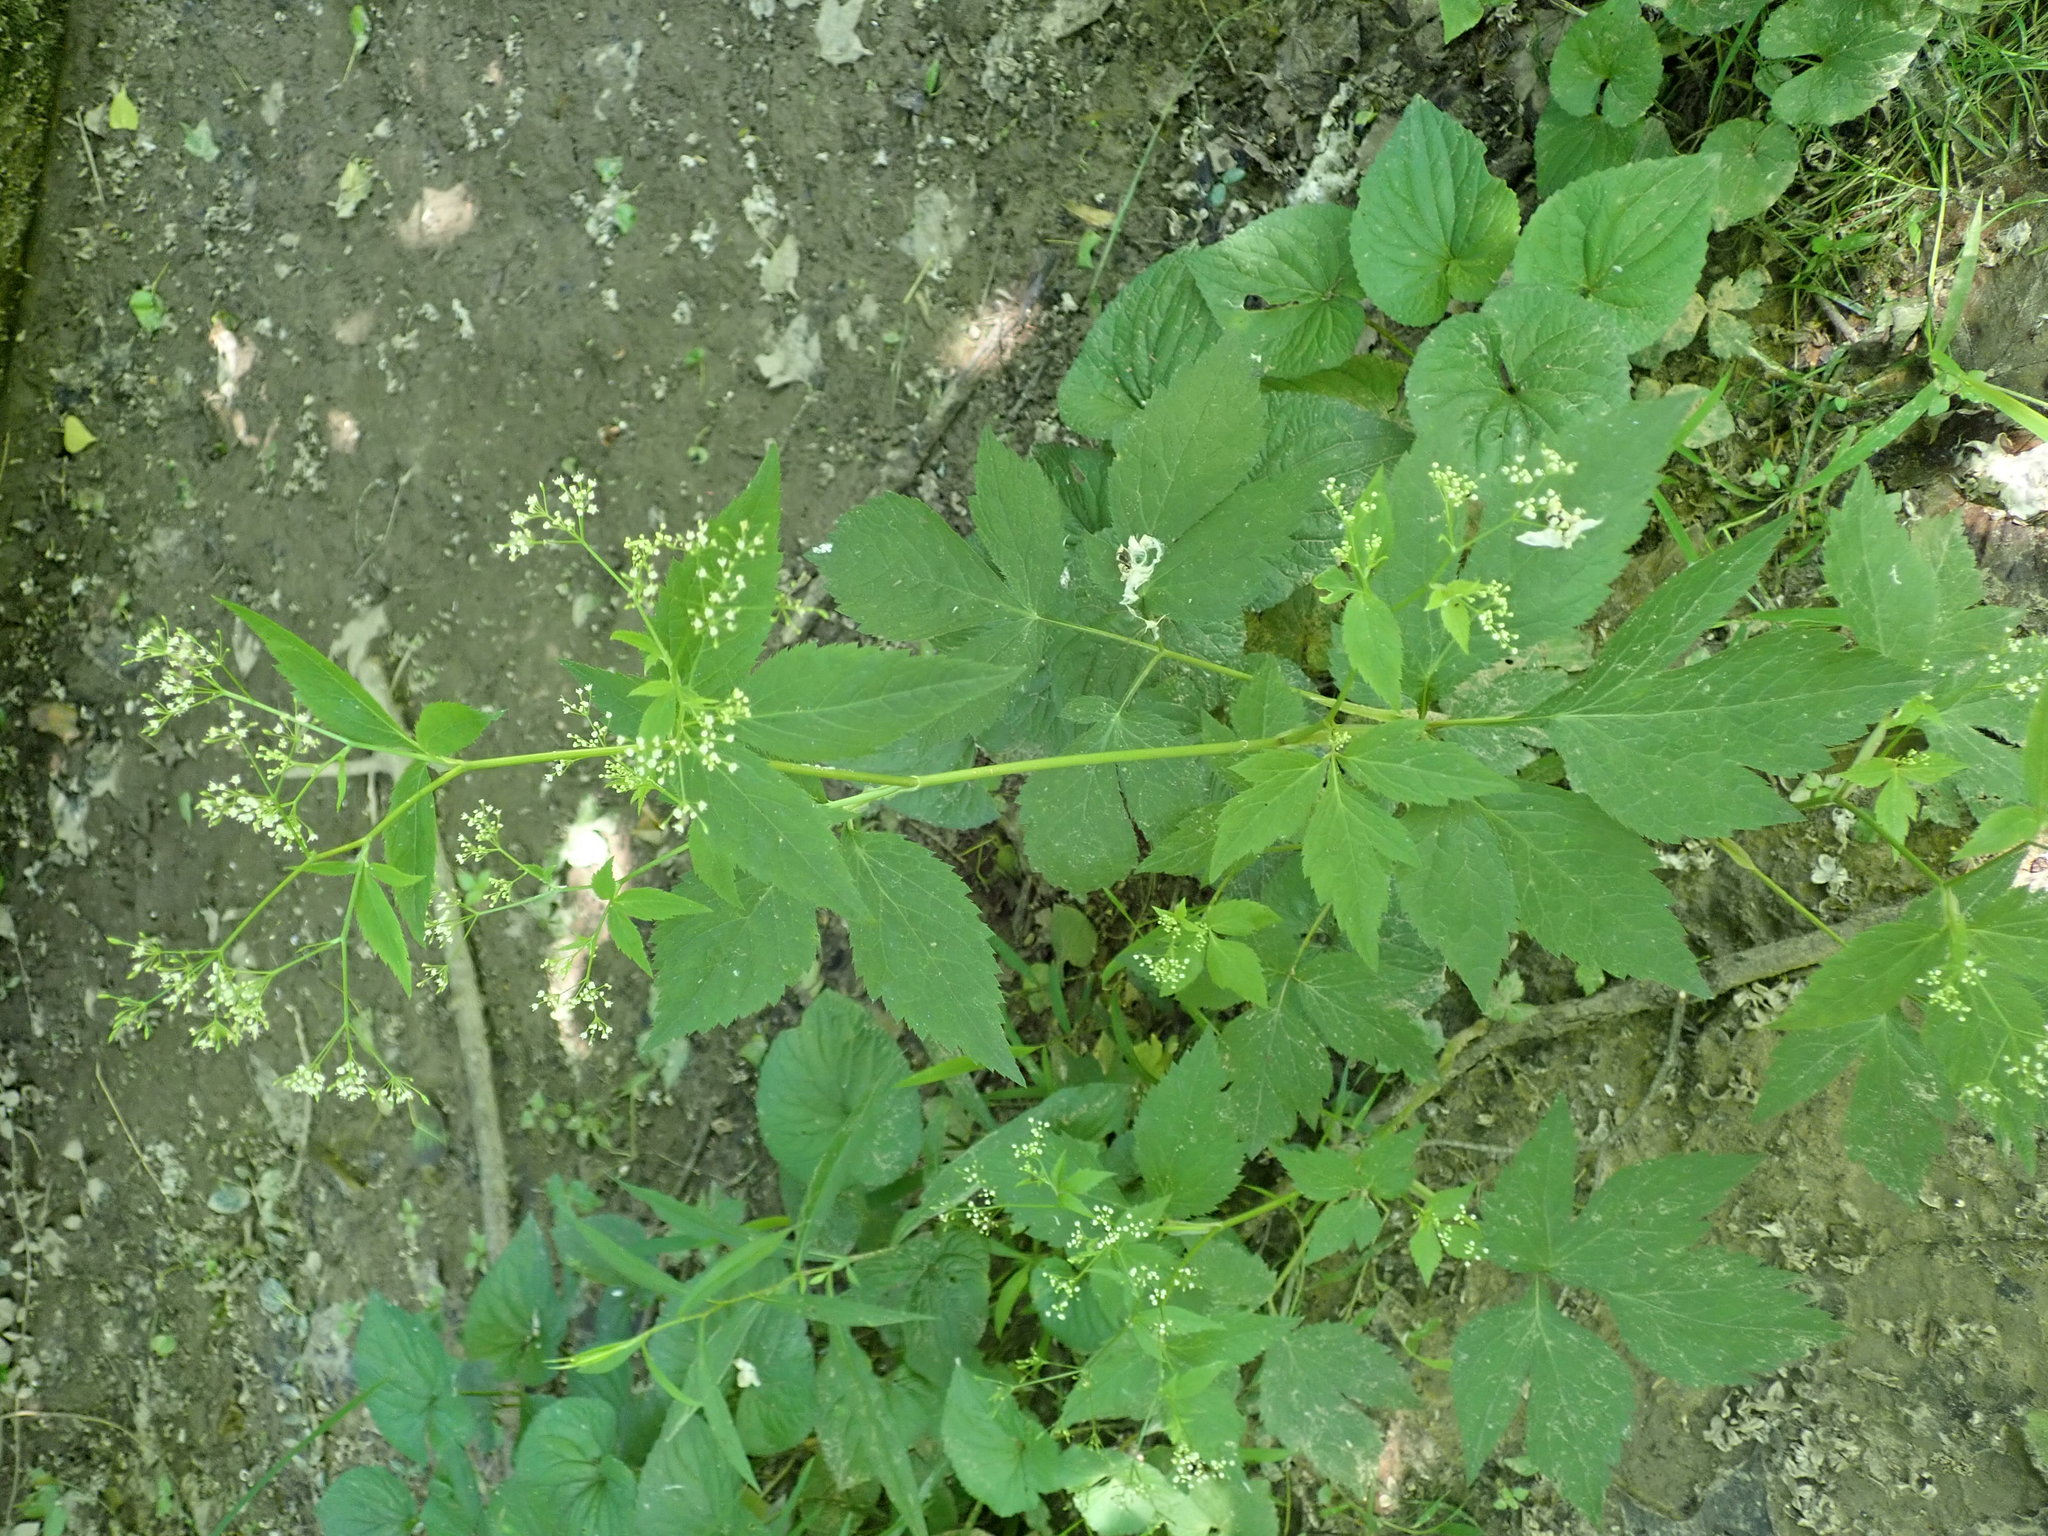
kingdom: Plantae
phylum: Tracheophyta
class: Magnoliopsida
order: Apiales
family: Apiaceae
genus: Cryptotaenia
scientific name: Cryptotaenia canadensis
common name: Honewort
